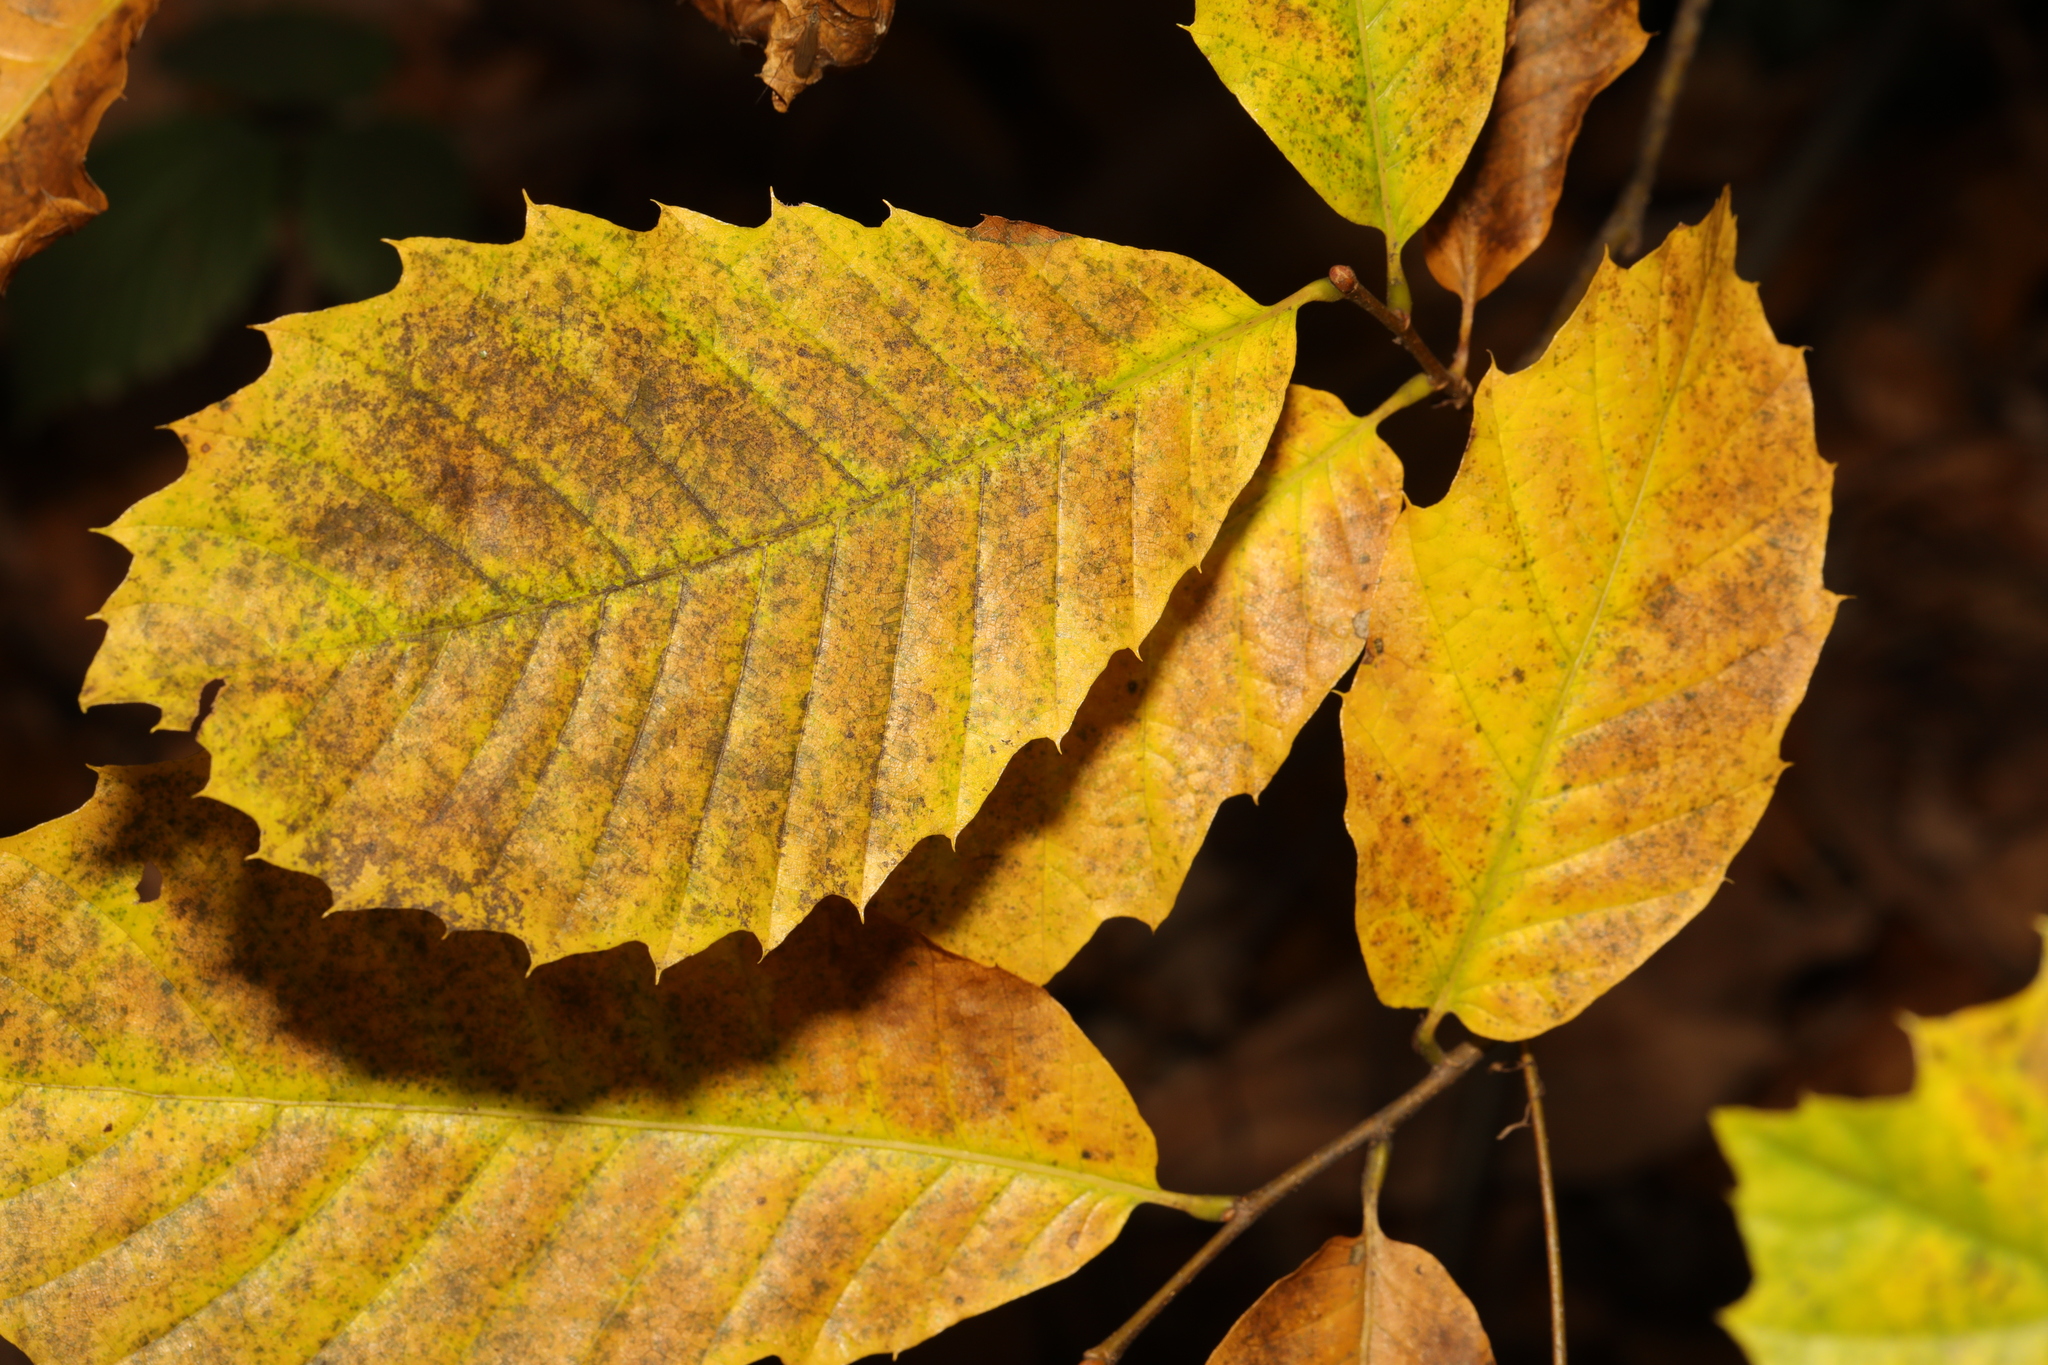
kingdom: Plantae
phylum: Tracheophyta
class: Magnoliopsida
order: Fagales
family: Fagaceae
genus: Castanea
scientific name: Castanea sativa
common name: Sweet chestnut
